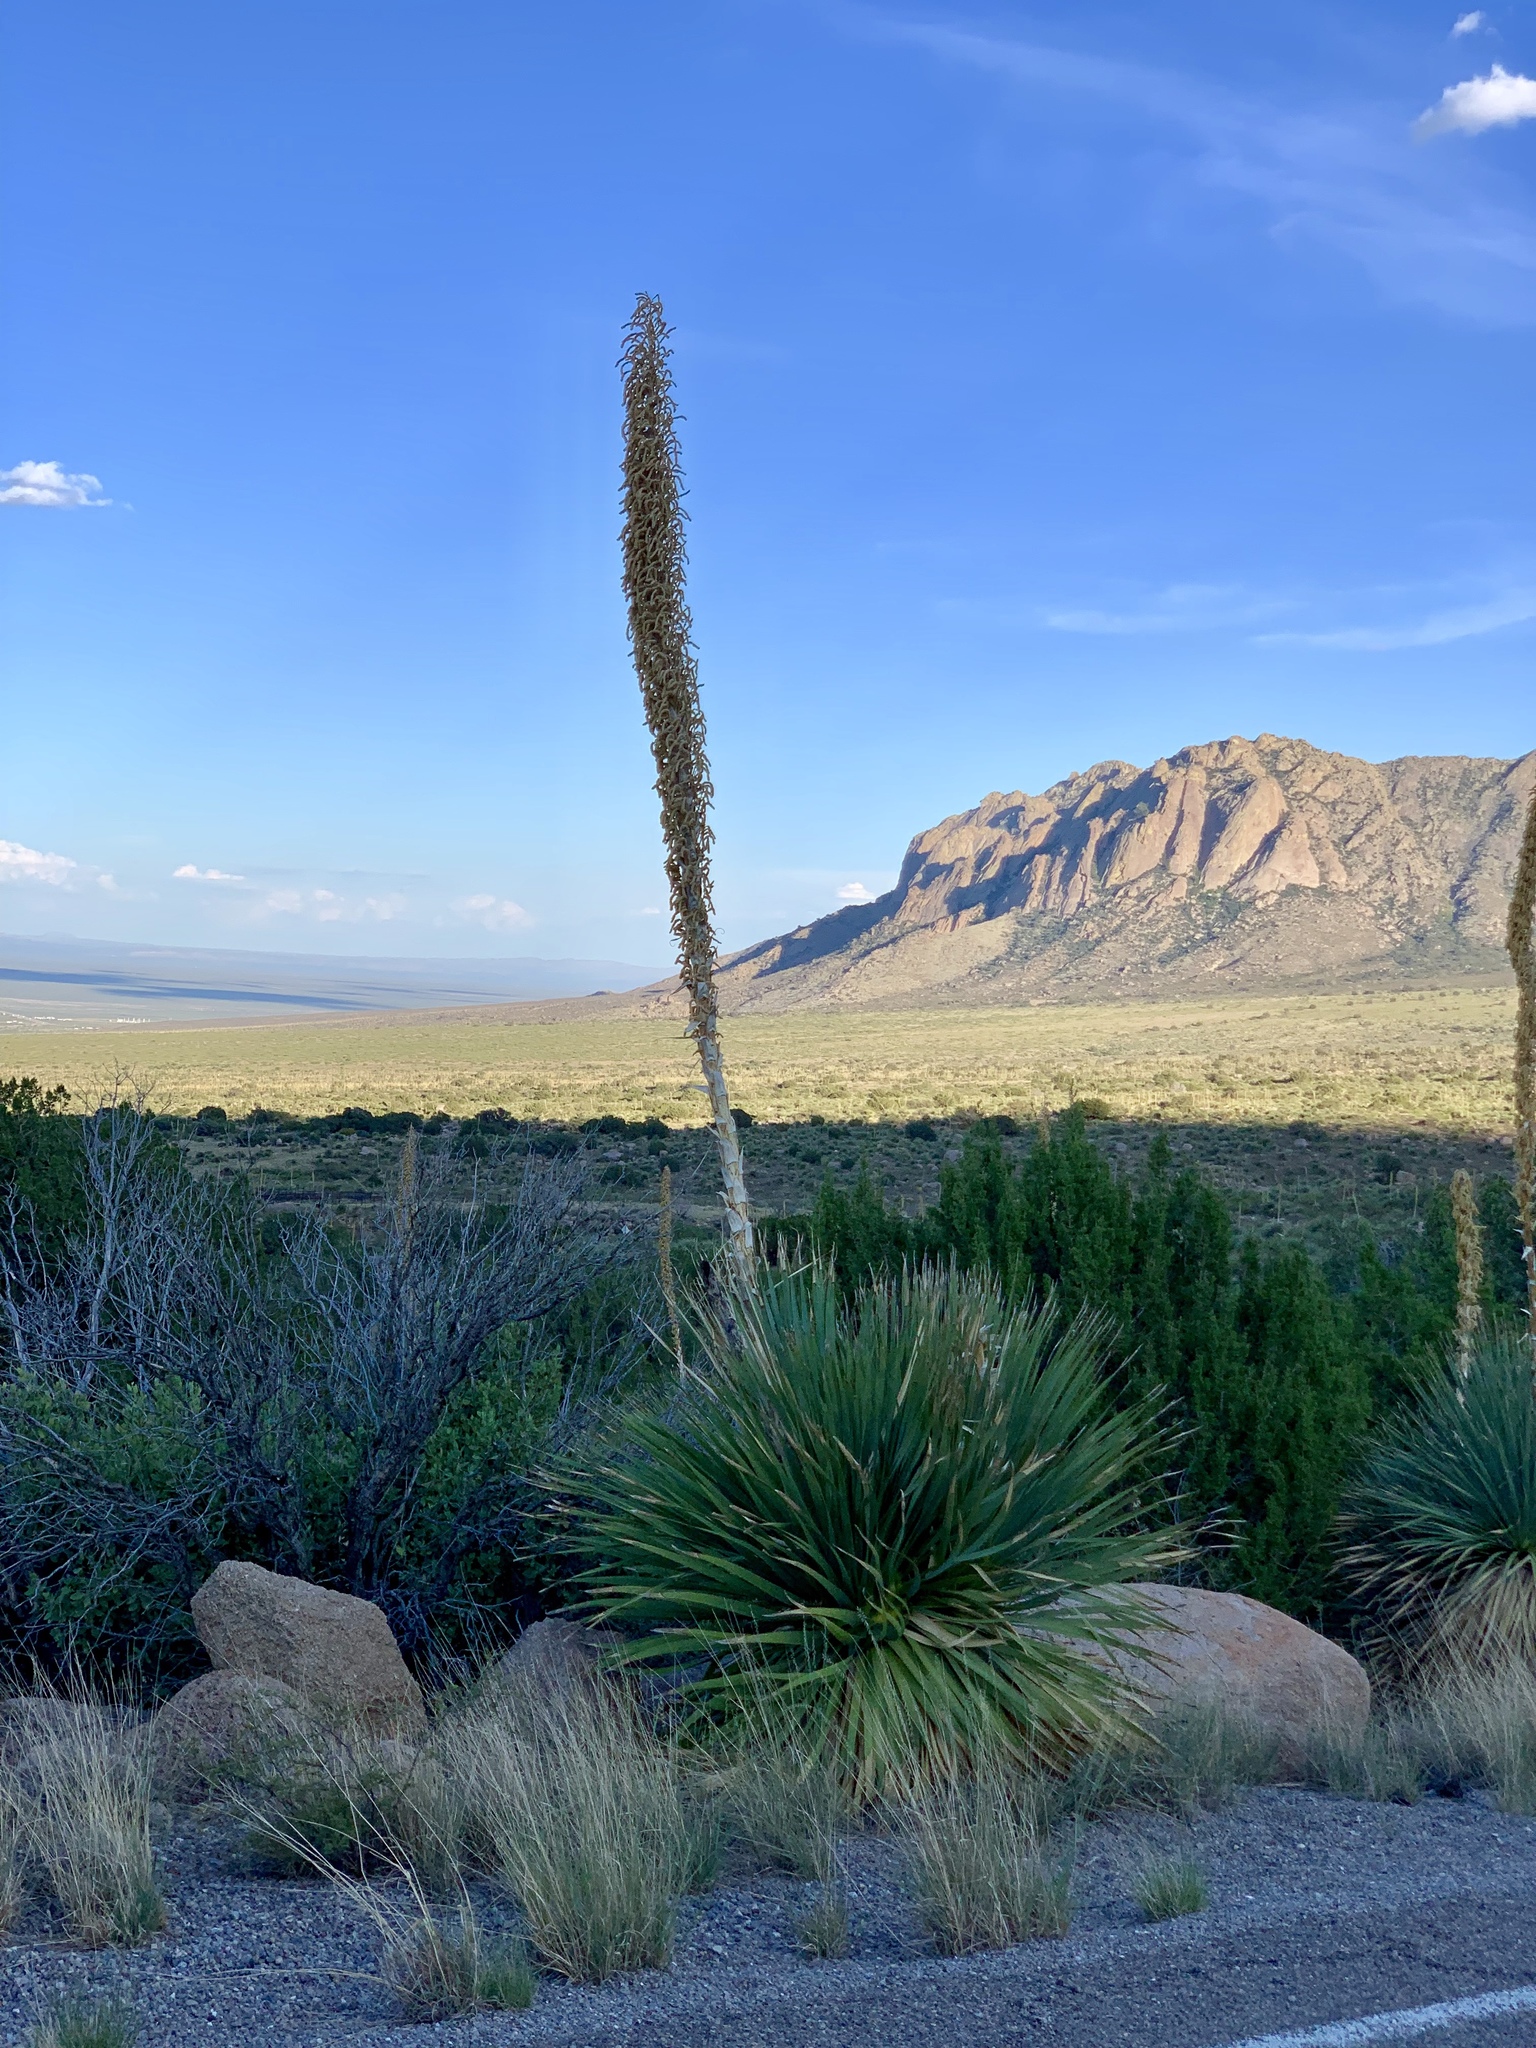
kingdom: Plantae
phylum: Tracheophyta
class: Liliopsida
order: Asparagales
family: Asparagaceae
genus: Dasylirion
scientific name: Dasylirion wheeleri
